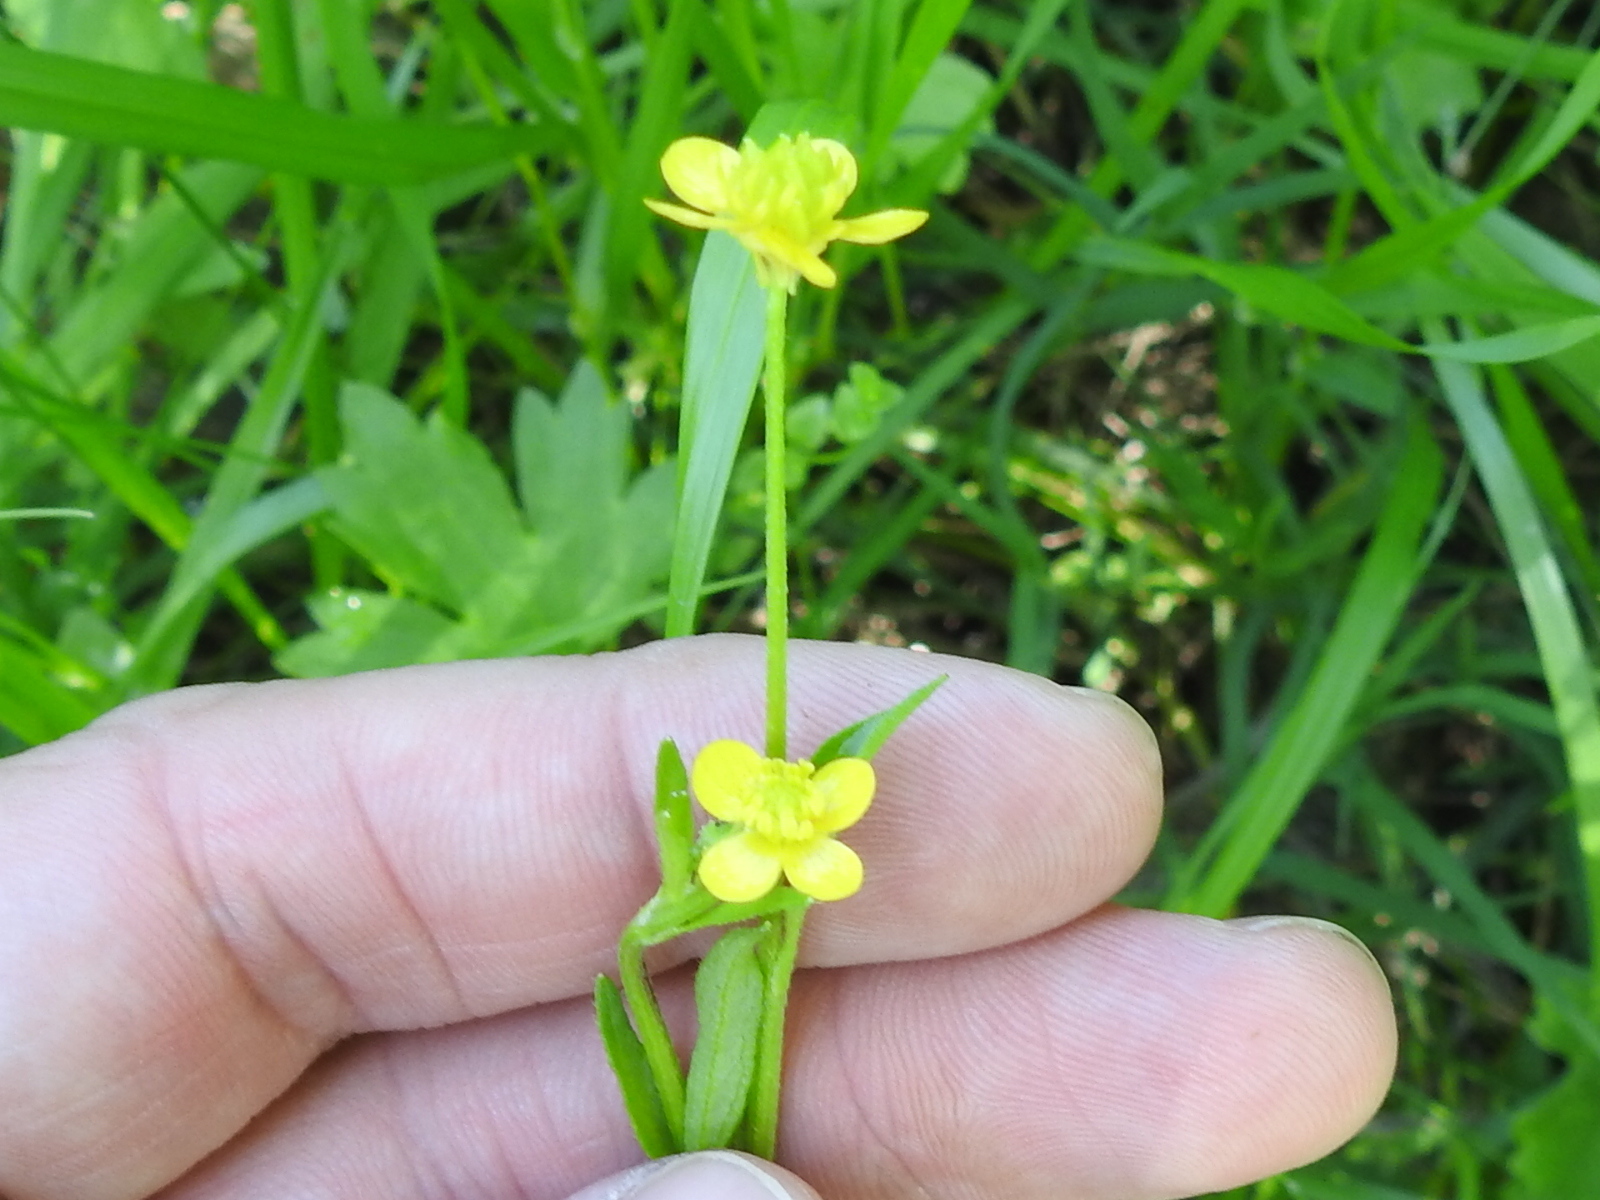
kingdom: Plantae
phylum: Tracheophyta
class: Magnoliopsida
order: Ranunculales
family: Ranunculaceae
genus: Ranunculus
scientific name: Ranunculus abortivus
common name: Early wood buttercup
